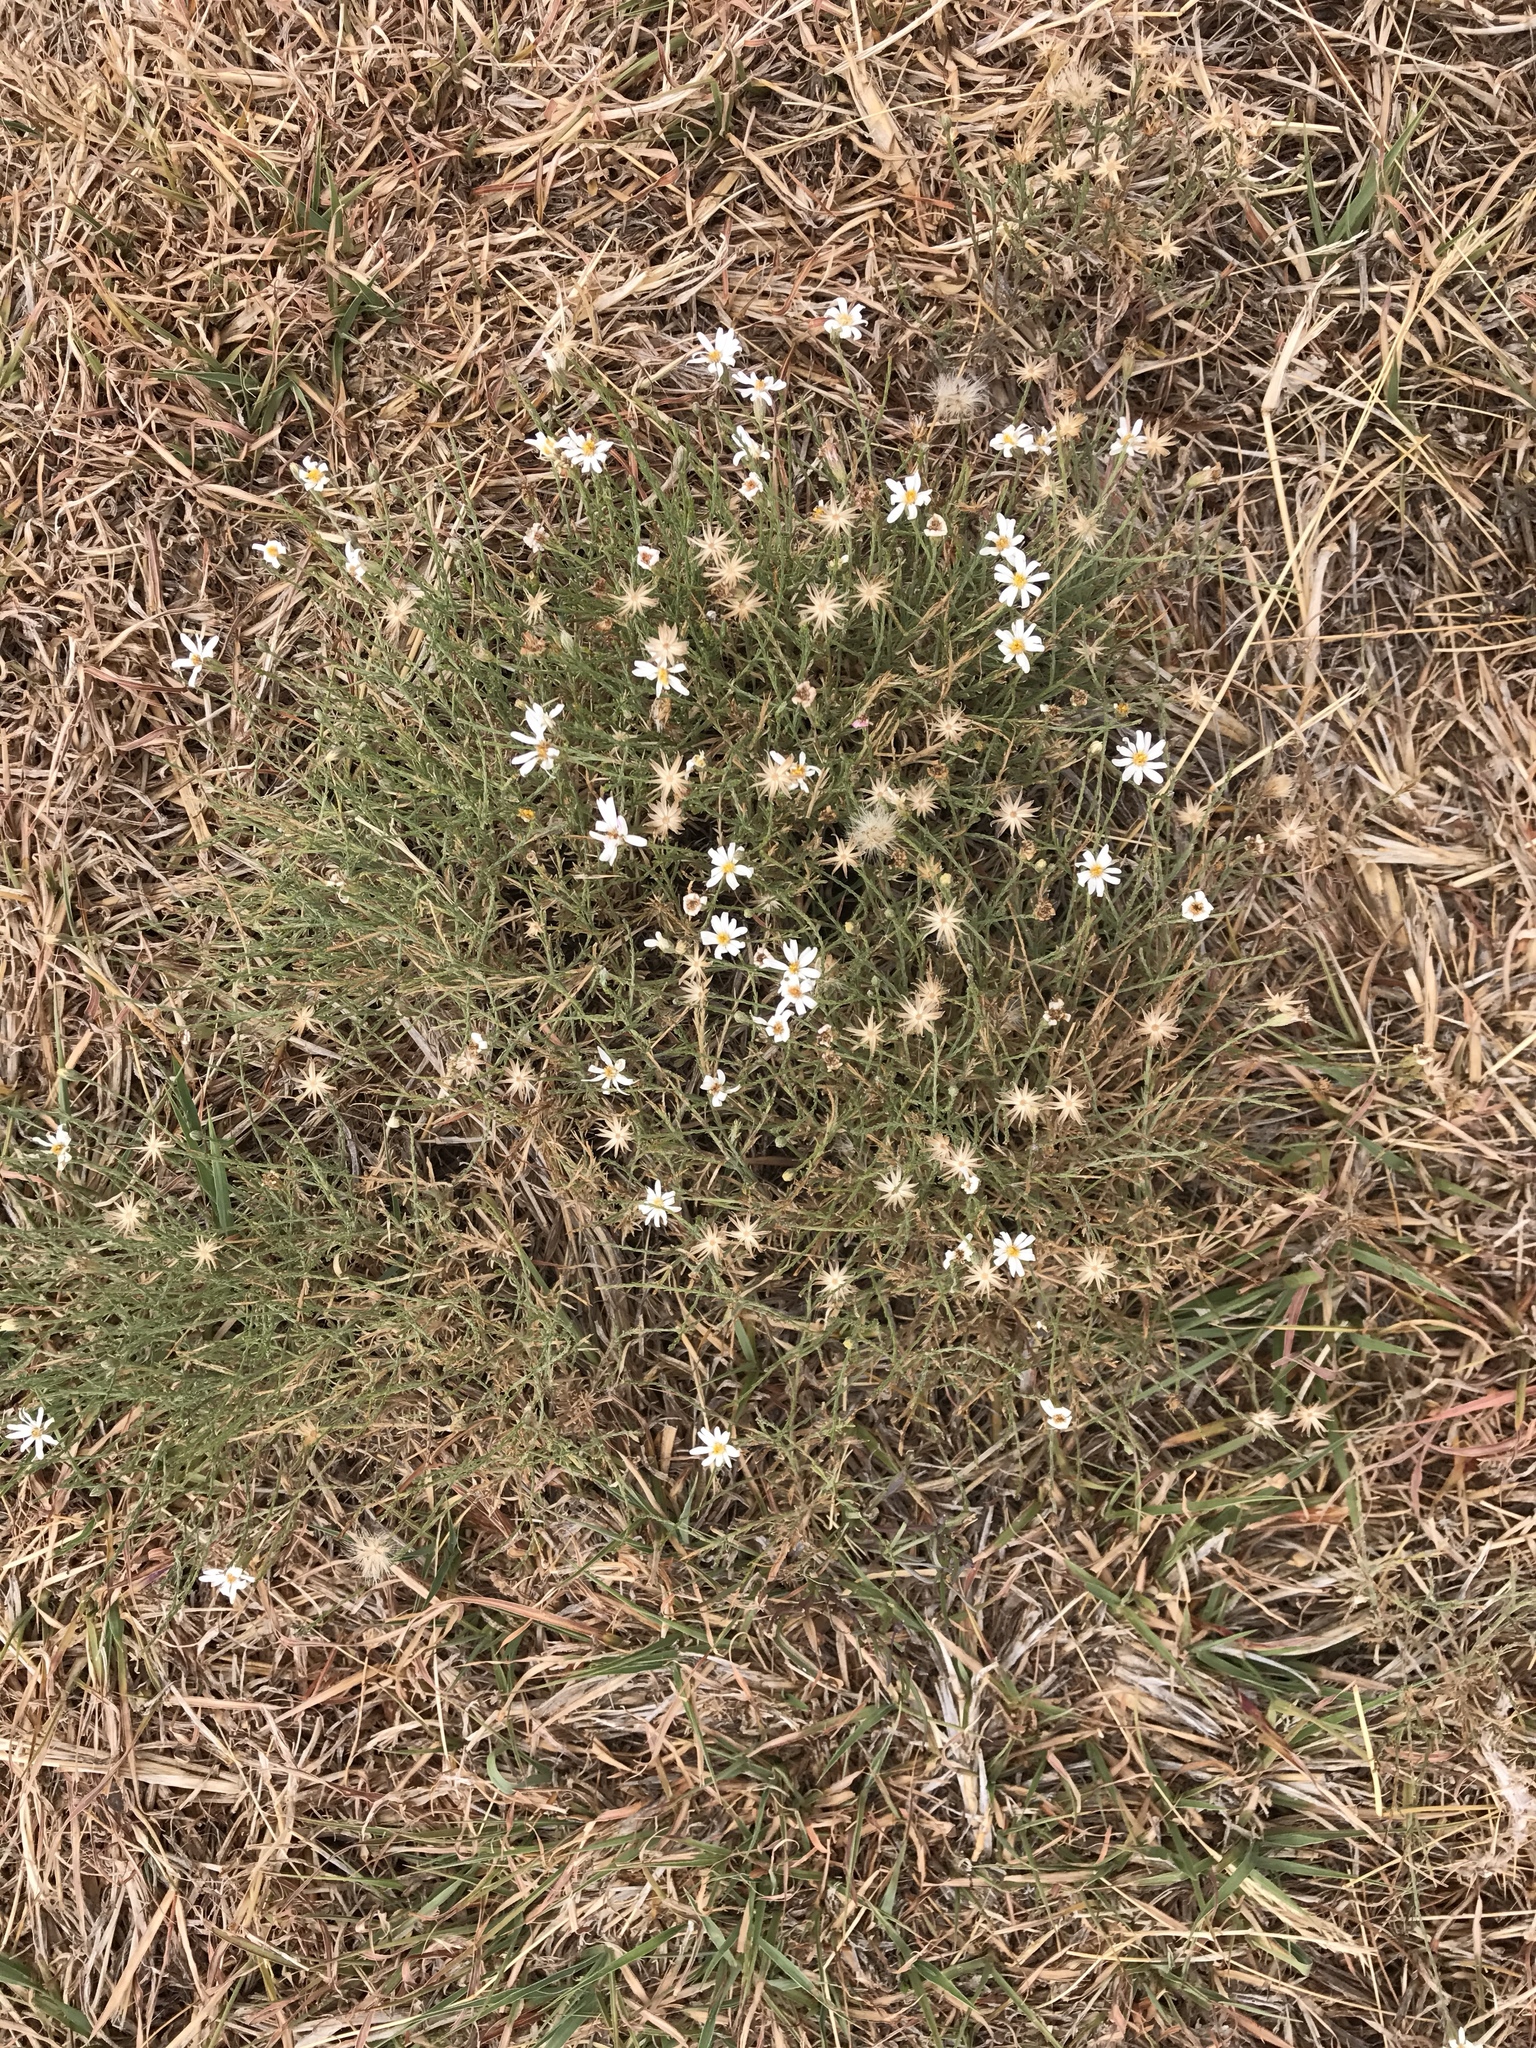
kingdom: Plantae
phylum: Tracheophyta
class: Magnoliopsida
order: Asterales
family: Asteraceae
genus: Chaetopappa
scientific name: Chaetopappa ericoides
